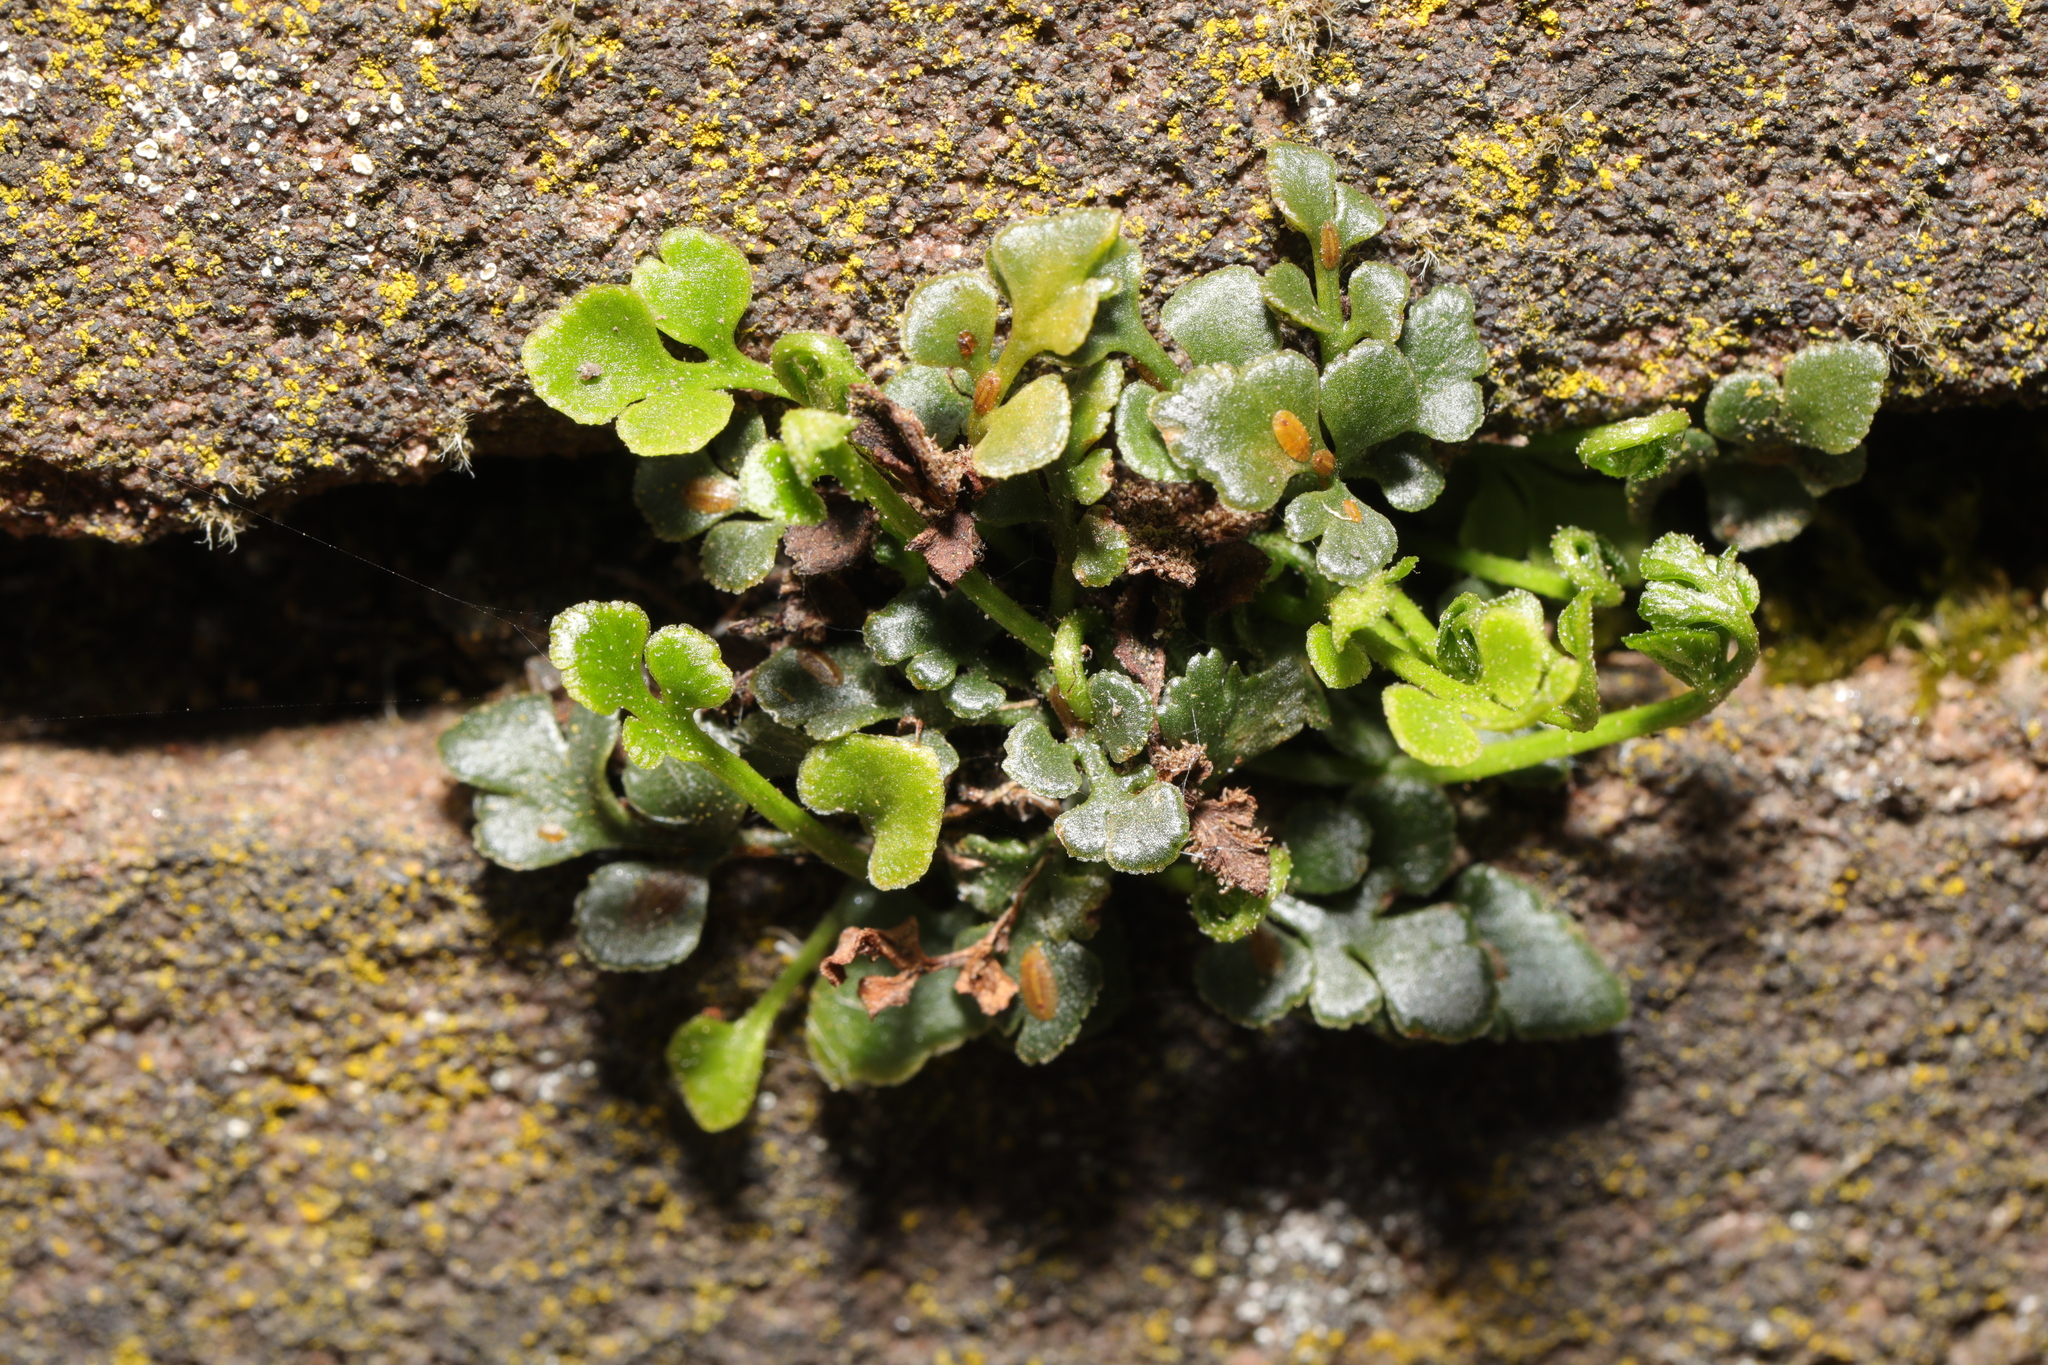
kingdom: Plantae
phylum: Tracheophyta
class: Polypodiopsida
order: Polypodiales
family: Aspleniaceae
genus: Asplenium
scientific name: Asplenium ruta-muraria
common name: Wall-rue
